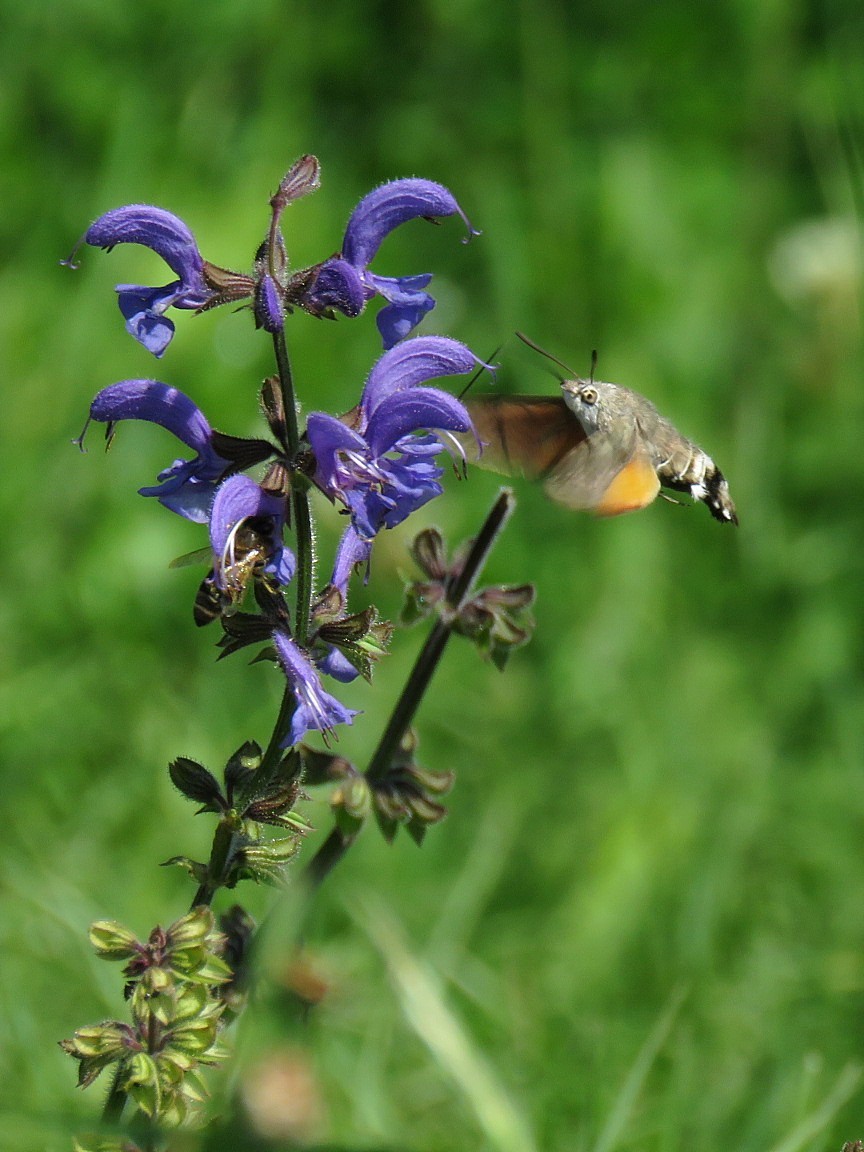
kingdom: Plantae
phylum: Tracheophyta
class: Magnoliopsida
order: Lamiales
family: Lamiaceae
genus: Salvia
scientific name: Salvia pratensis
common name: Meadow sage
